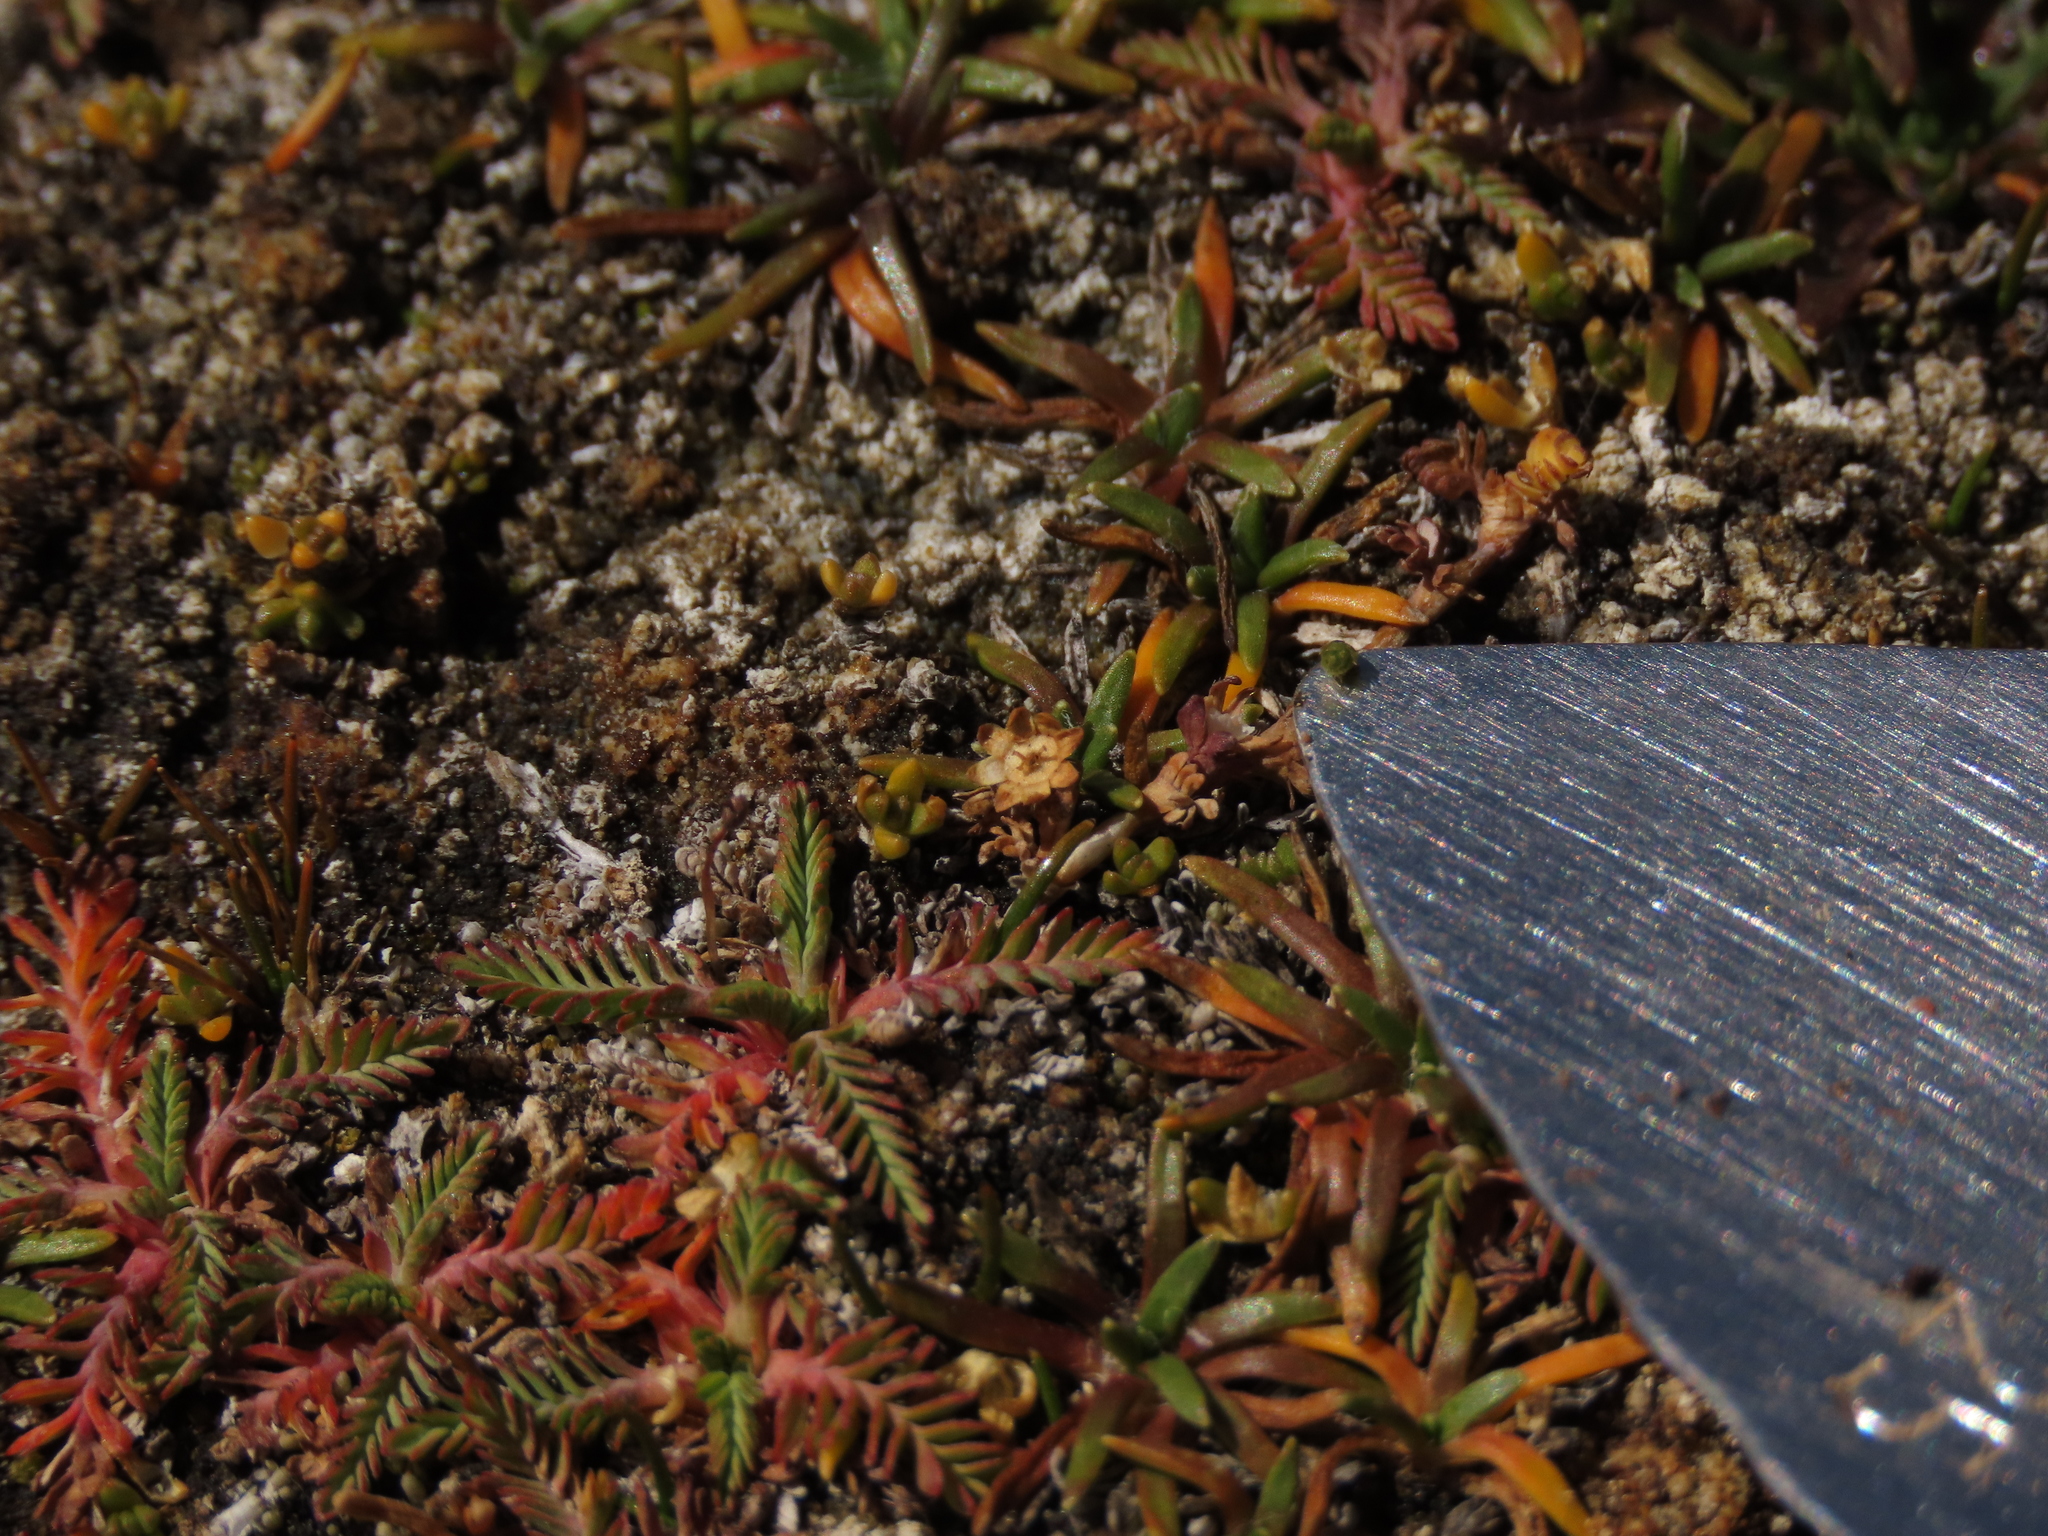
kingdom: Plantae
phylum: Tracheophyta
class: Magnoliopsida
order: Rosales
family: Rosaceae
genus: Lachemilla
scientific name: Lachemilla
